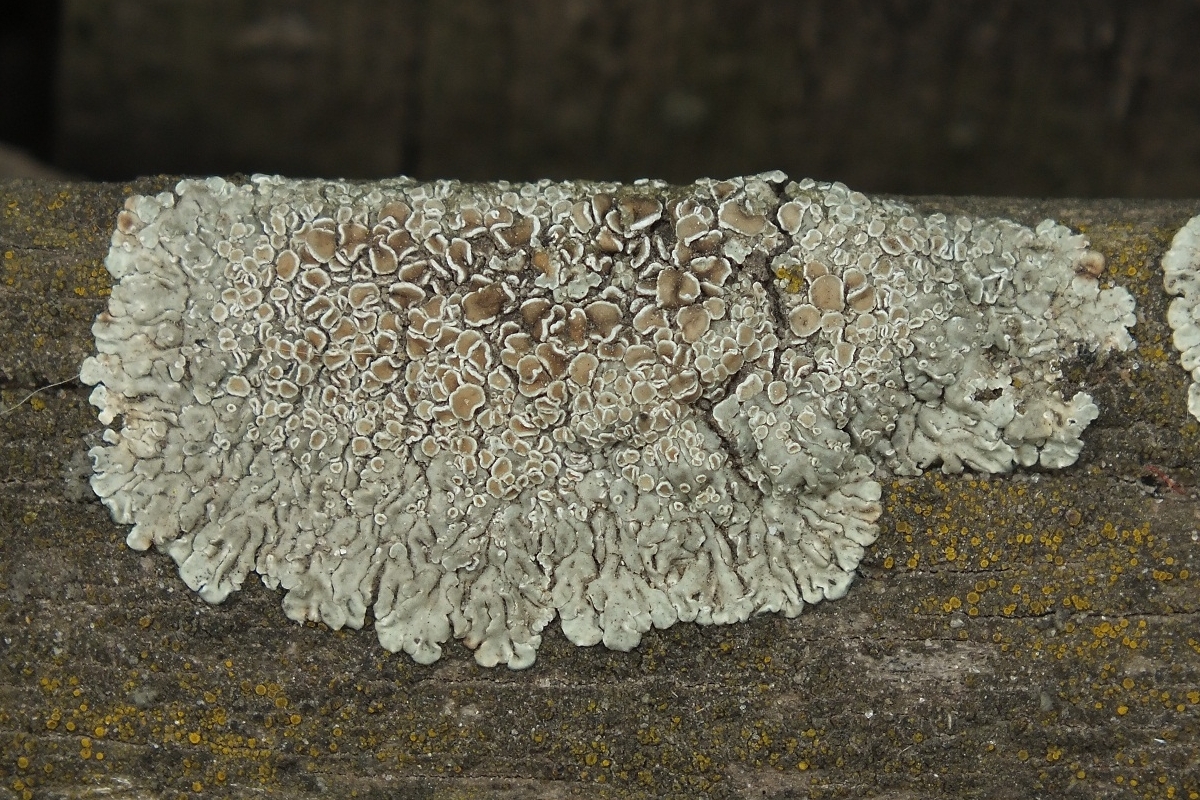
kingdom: Fungi
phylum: Ascomycota
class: Lecanoromycetes
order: Lecanorales
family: Lecanoraceae
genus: Protoparmeliopsis
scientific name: Protoparmeliopsis muralis
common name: Stonewall rim lichen
